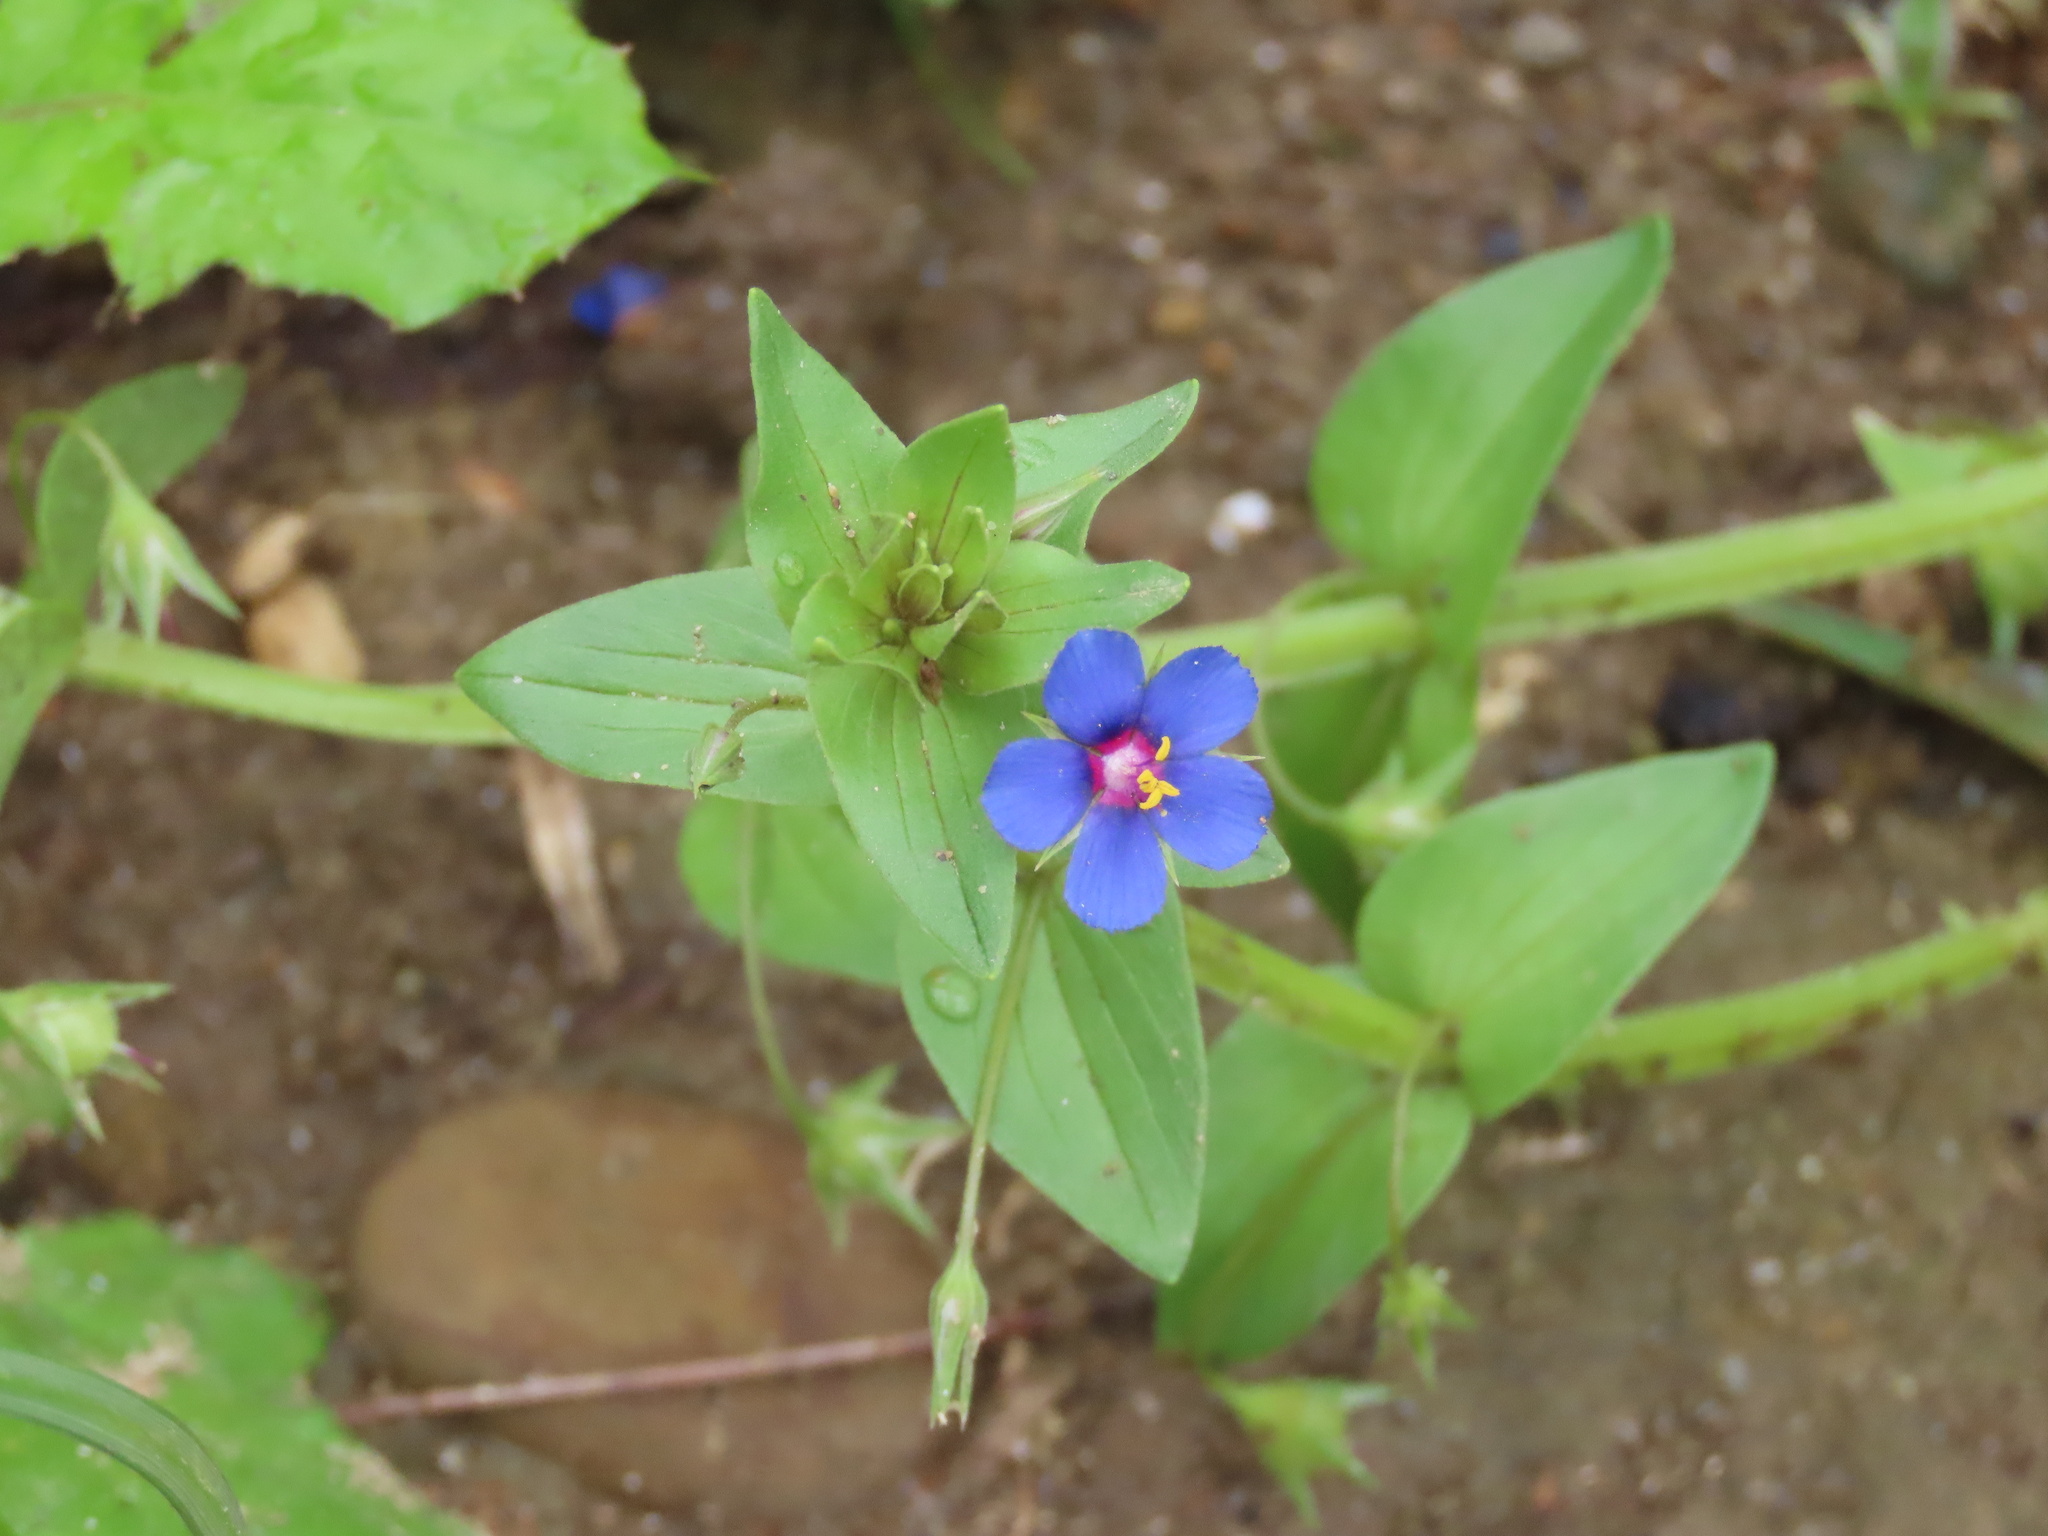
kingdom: Plantae
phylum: Tracheophyta
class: Magnoliopsida
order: Ericales
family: Primulaceae
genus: Lysimachia
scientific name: Lysimachia loeflingii
